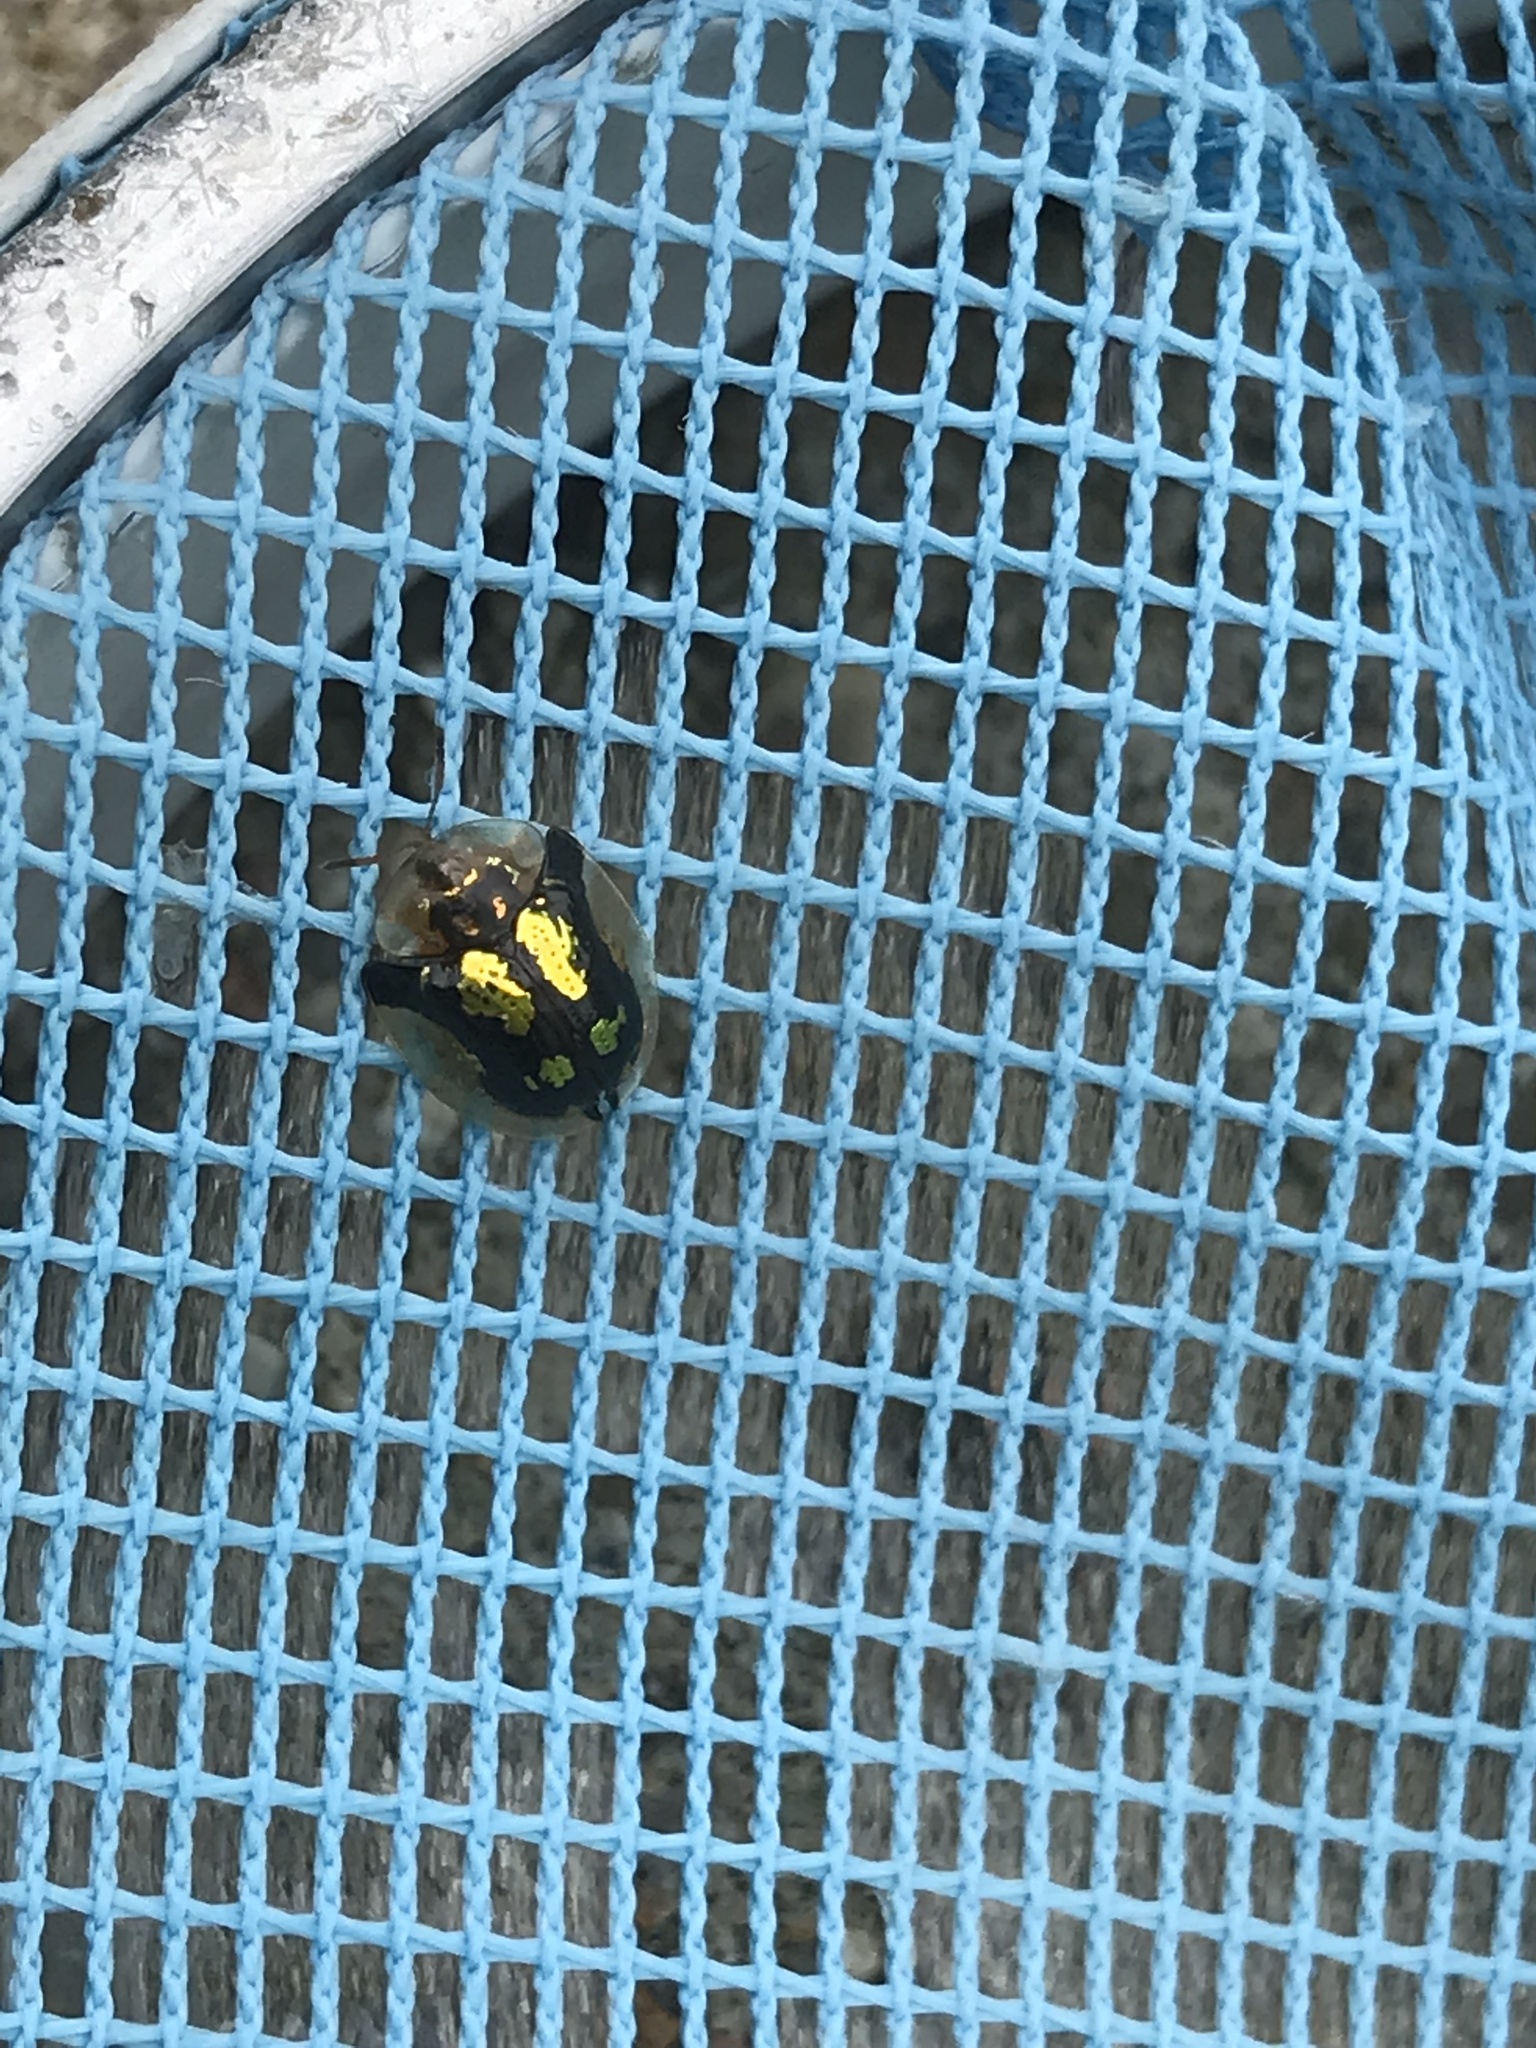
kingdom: Animalia
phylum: Arthropoda
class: Insecta
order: Coleoptera
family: Chrysomelidae
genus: Deloyala
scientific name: Deloyala guttata
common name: Mottled tortoise beetle
